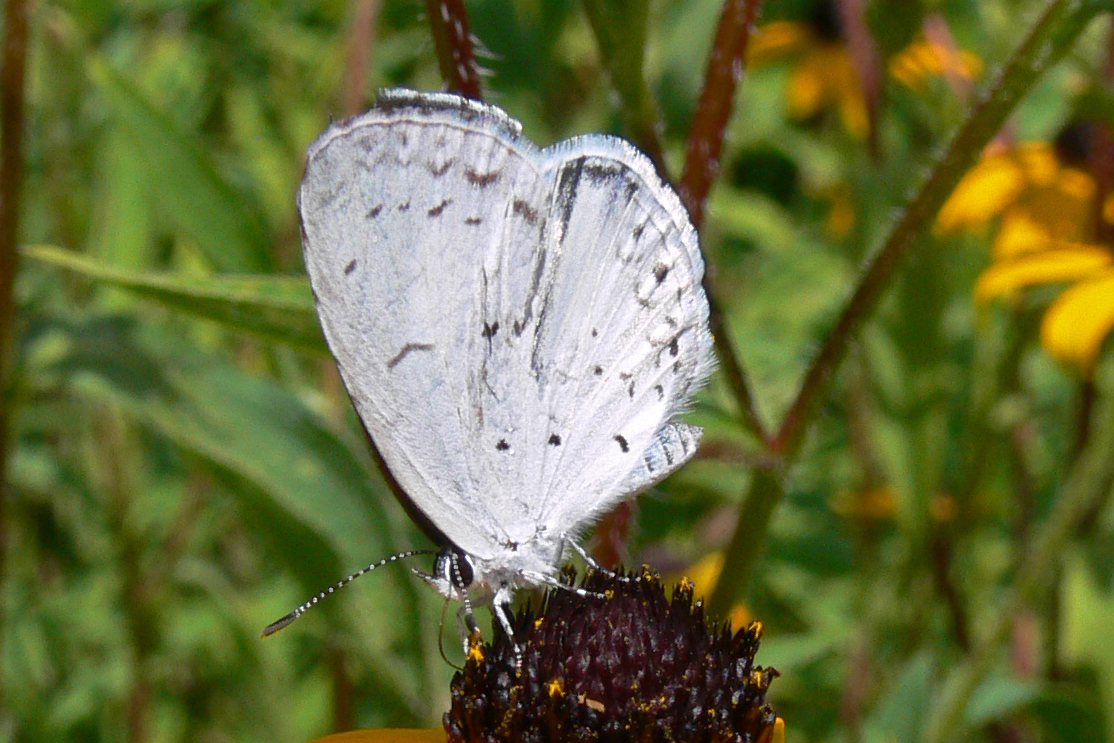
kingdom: Animalia
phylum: Arthropoda
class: Insecta
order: Lepidoptera
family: Lycaenidae
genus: Cyaniris
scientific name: Cyaniris neglecta
